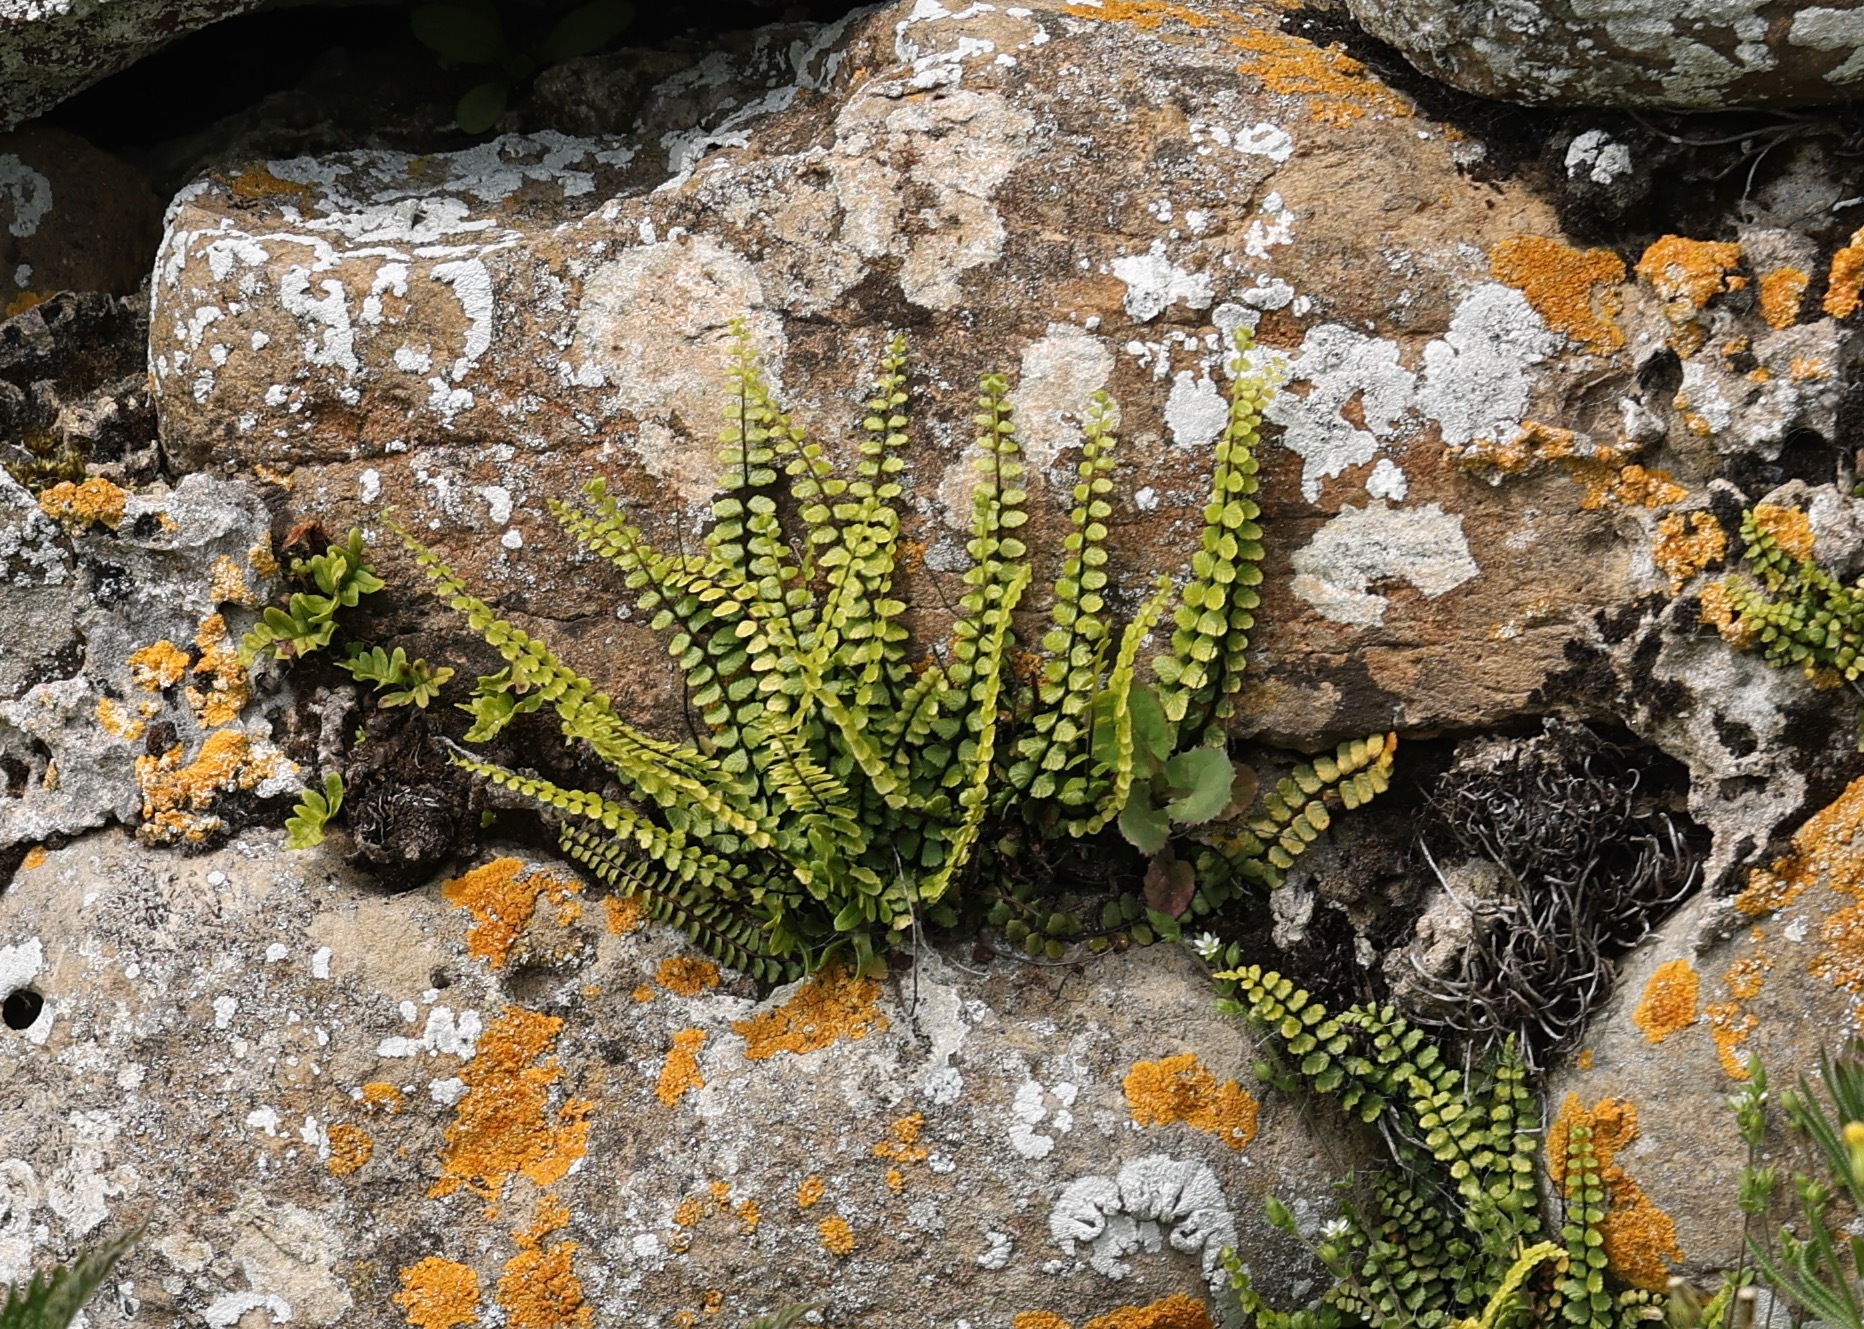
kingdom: Plantae
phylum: Tracheophyta
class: Polypodiopsida
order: Polypodiales
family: Aspleniaceae
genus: Asplenium
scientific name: Asplenium trichomanes
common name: Maidenhair spleenwort
